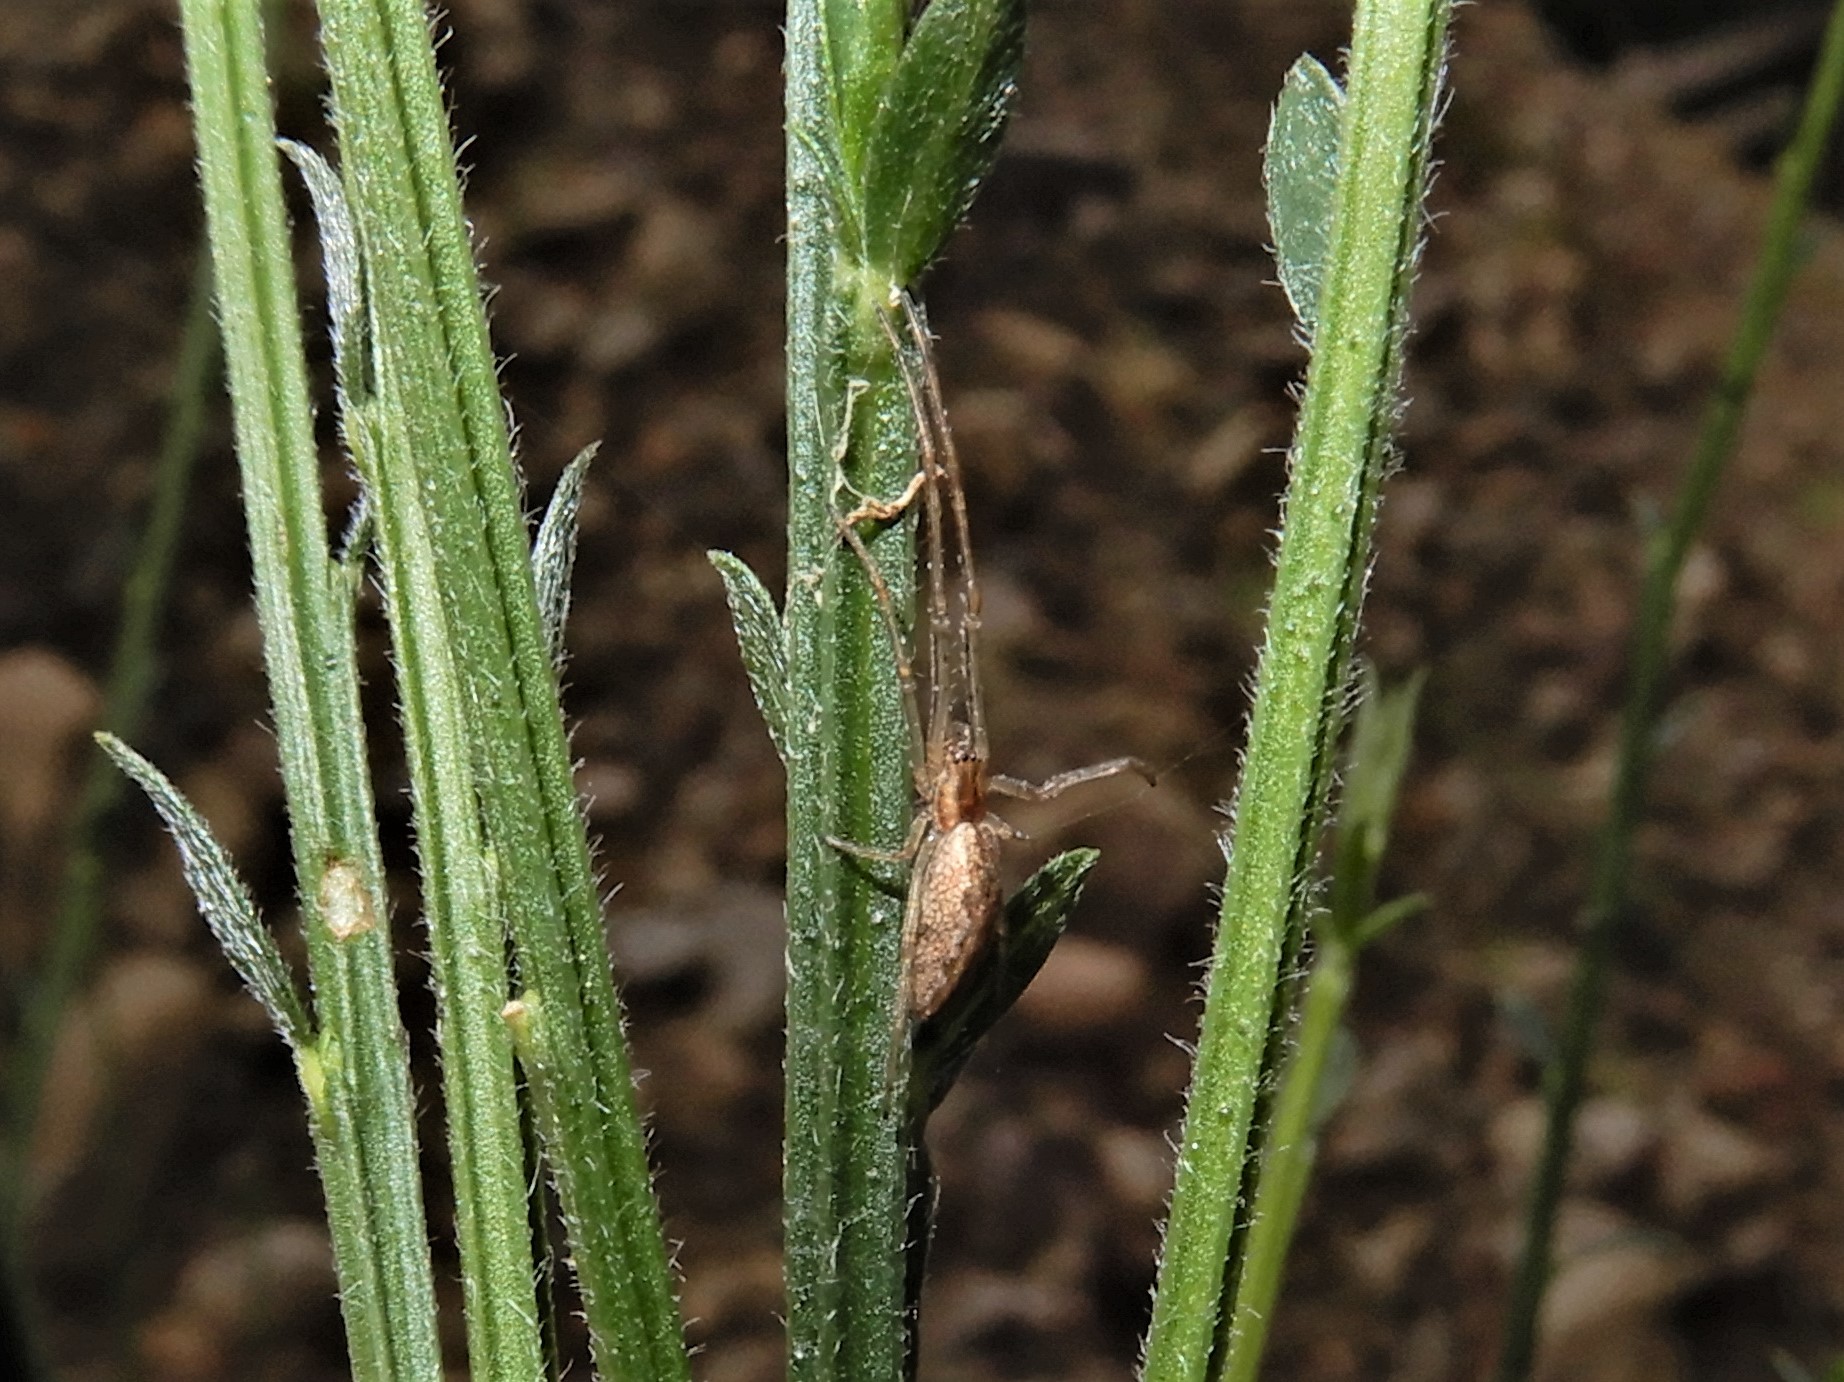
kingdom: Animalia
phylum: Arthropoda
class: Arachnida
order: Araneae
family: Tetragnathidae
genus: Nanometa
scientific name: Nanometa lagenifera
